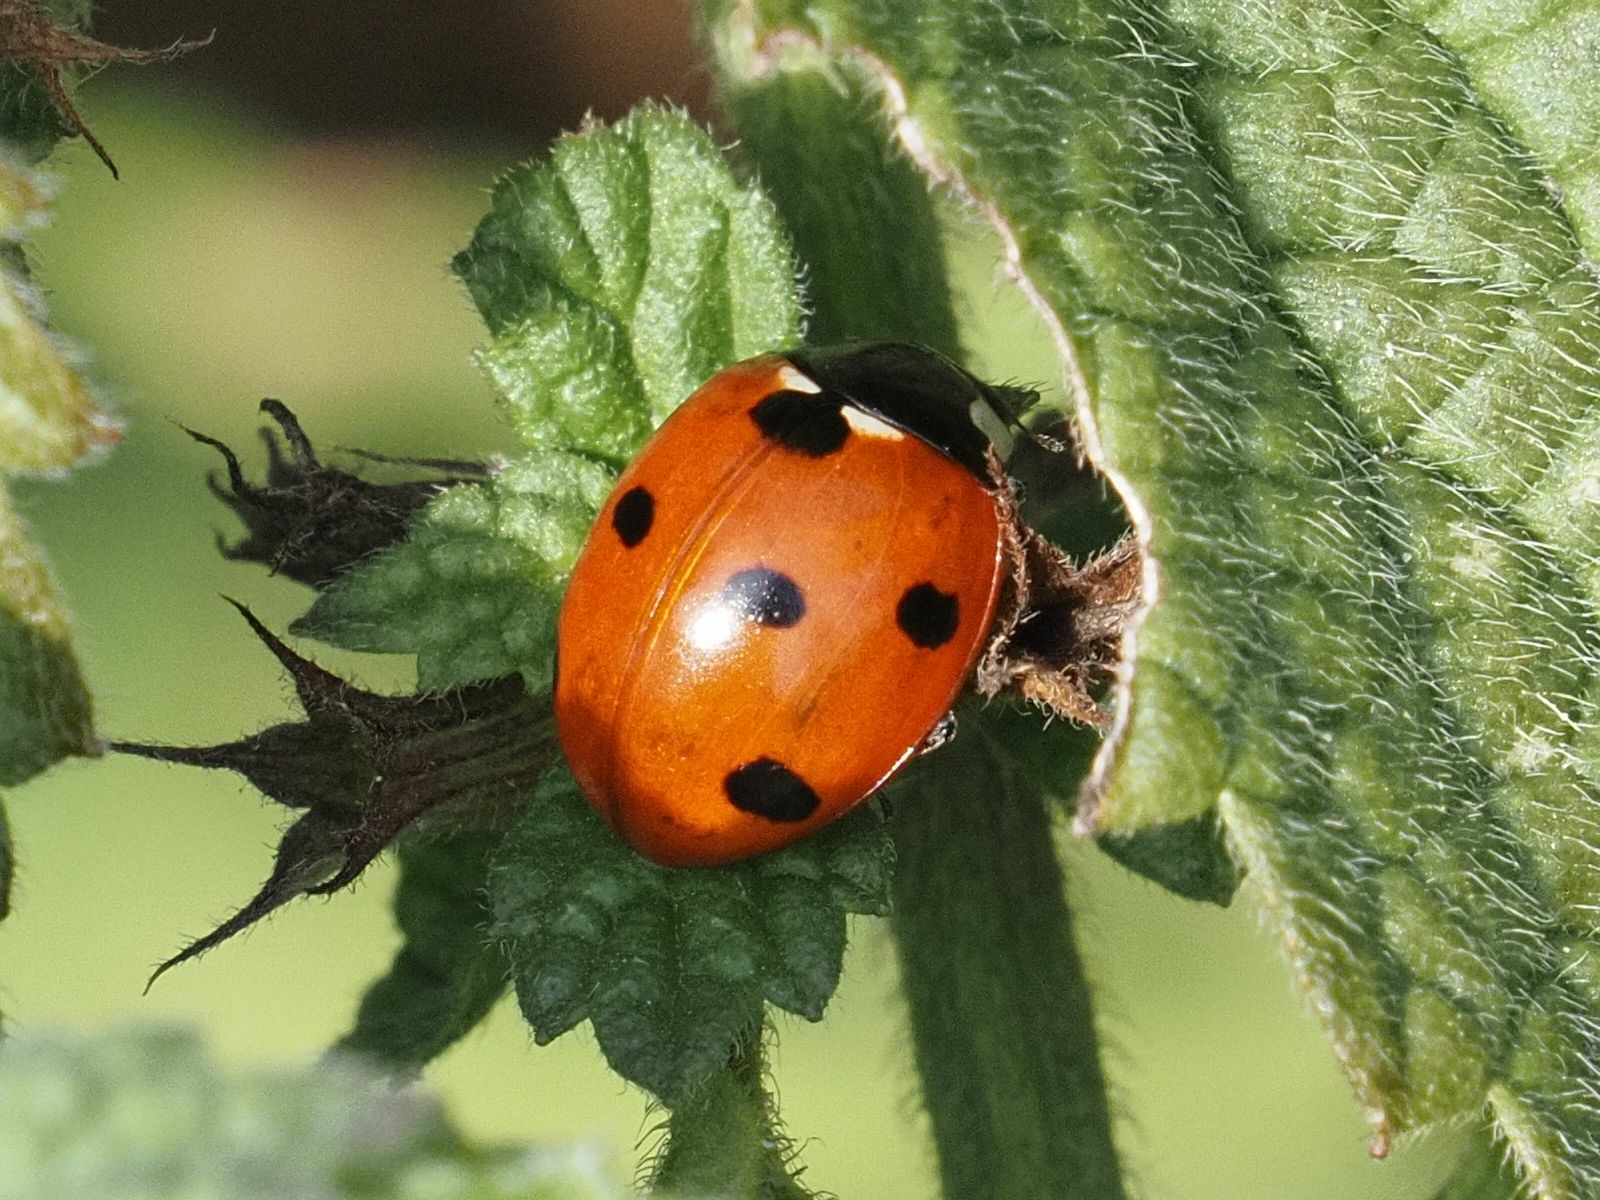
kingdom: Animalia
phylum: Arthropoda
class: Insecta
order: Coleoptera
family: Coccinellidae
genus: Coccinella
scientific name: Coccinella septempunctata
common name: Sevenspotted lady beetle
